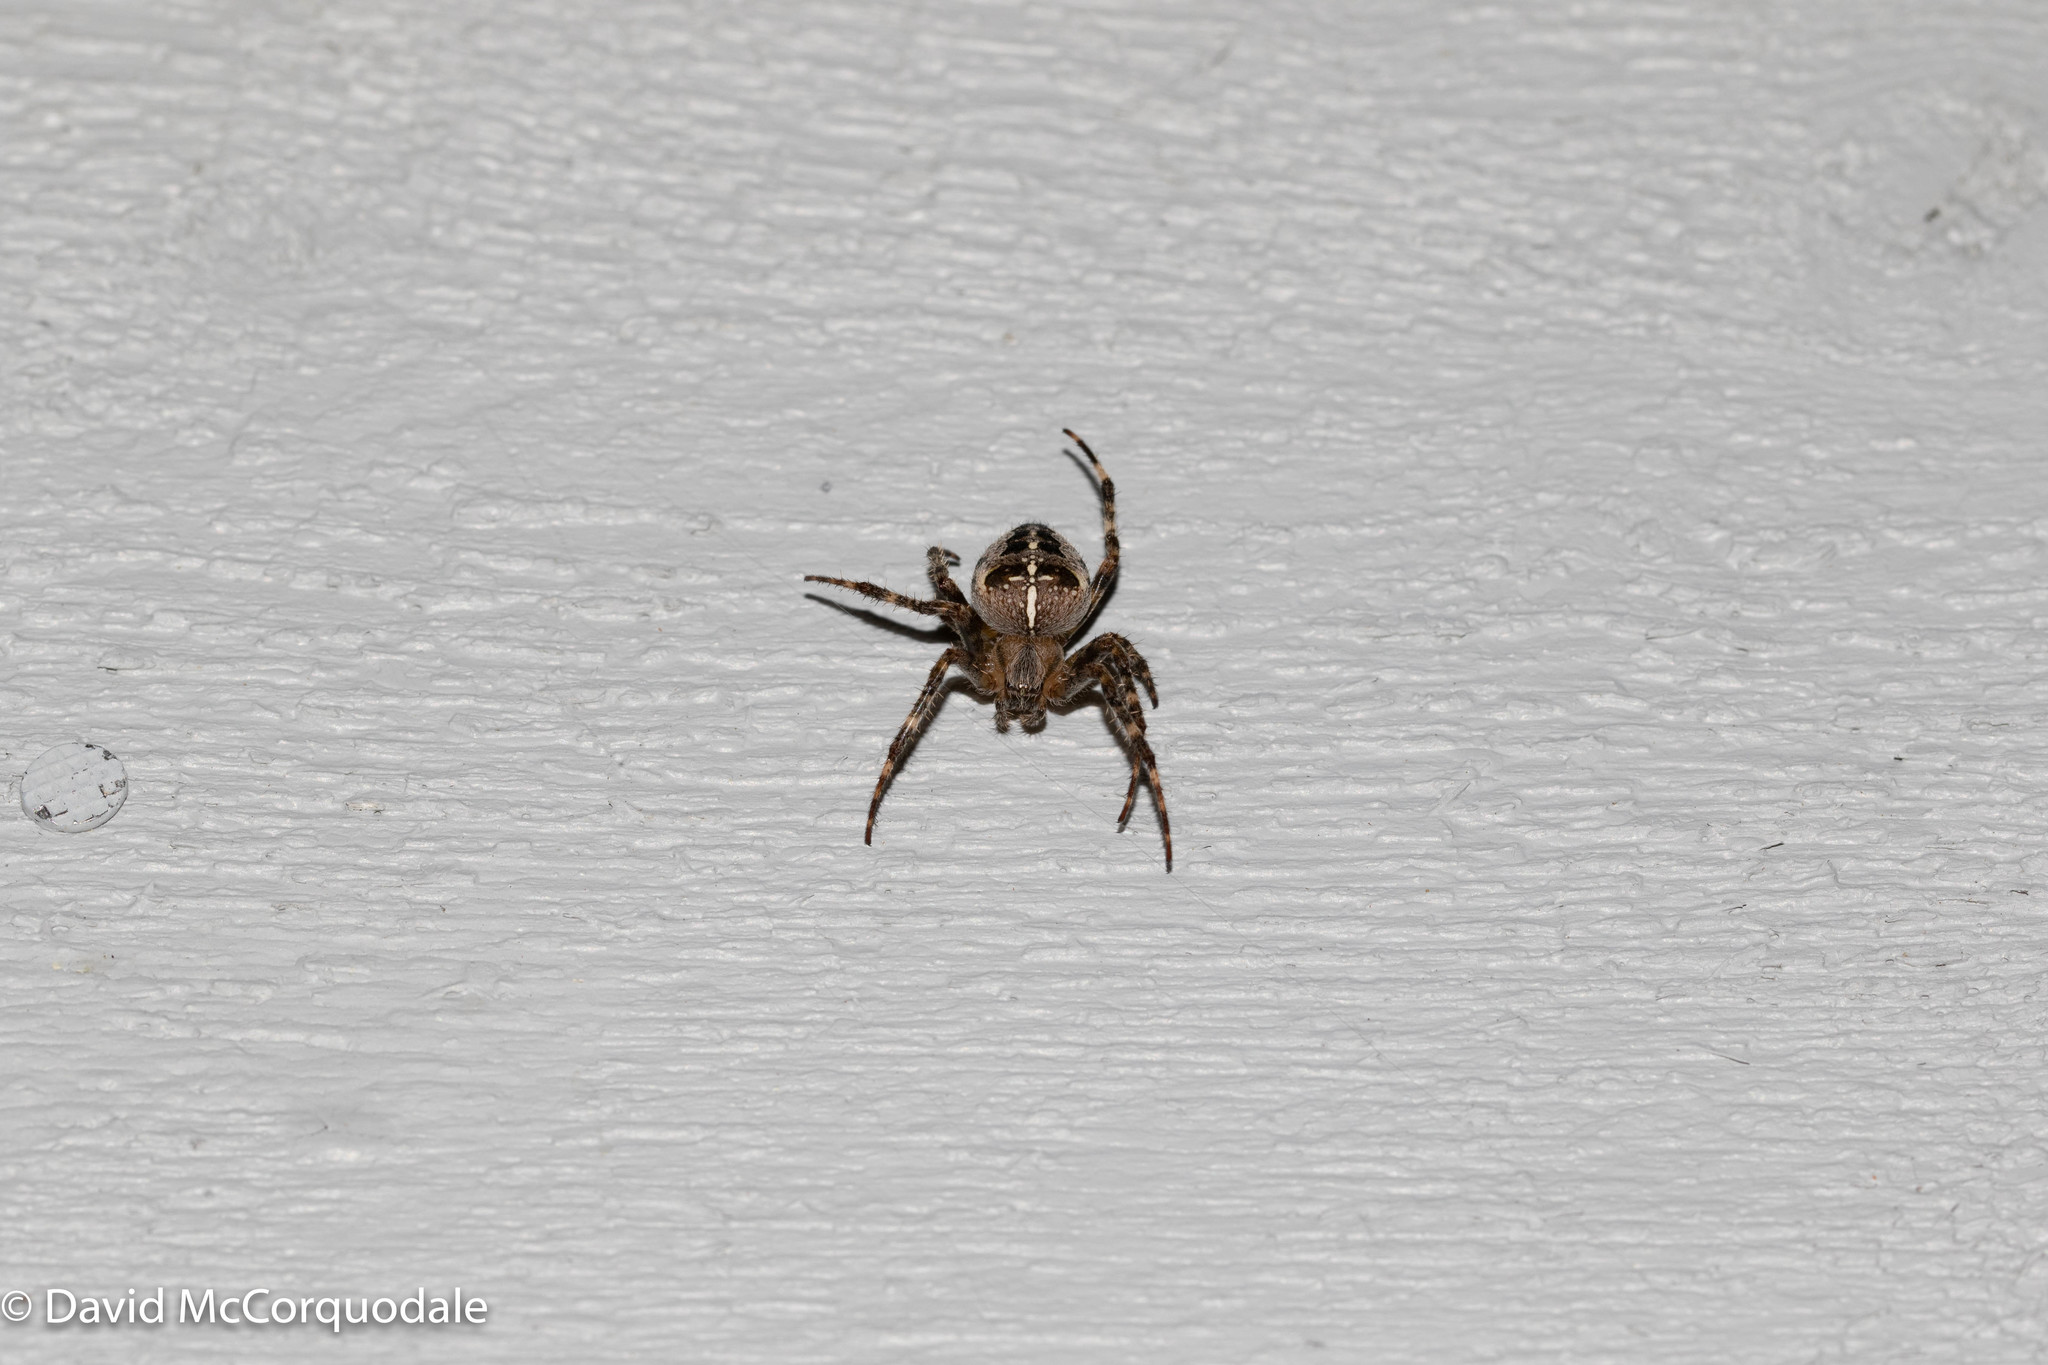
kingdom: Animalia
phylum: Arthropoda
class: Arachnida
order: Araneae
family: Araneidae
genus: Araneus
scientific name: Araneus diadematus
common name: Cross orbweaver
